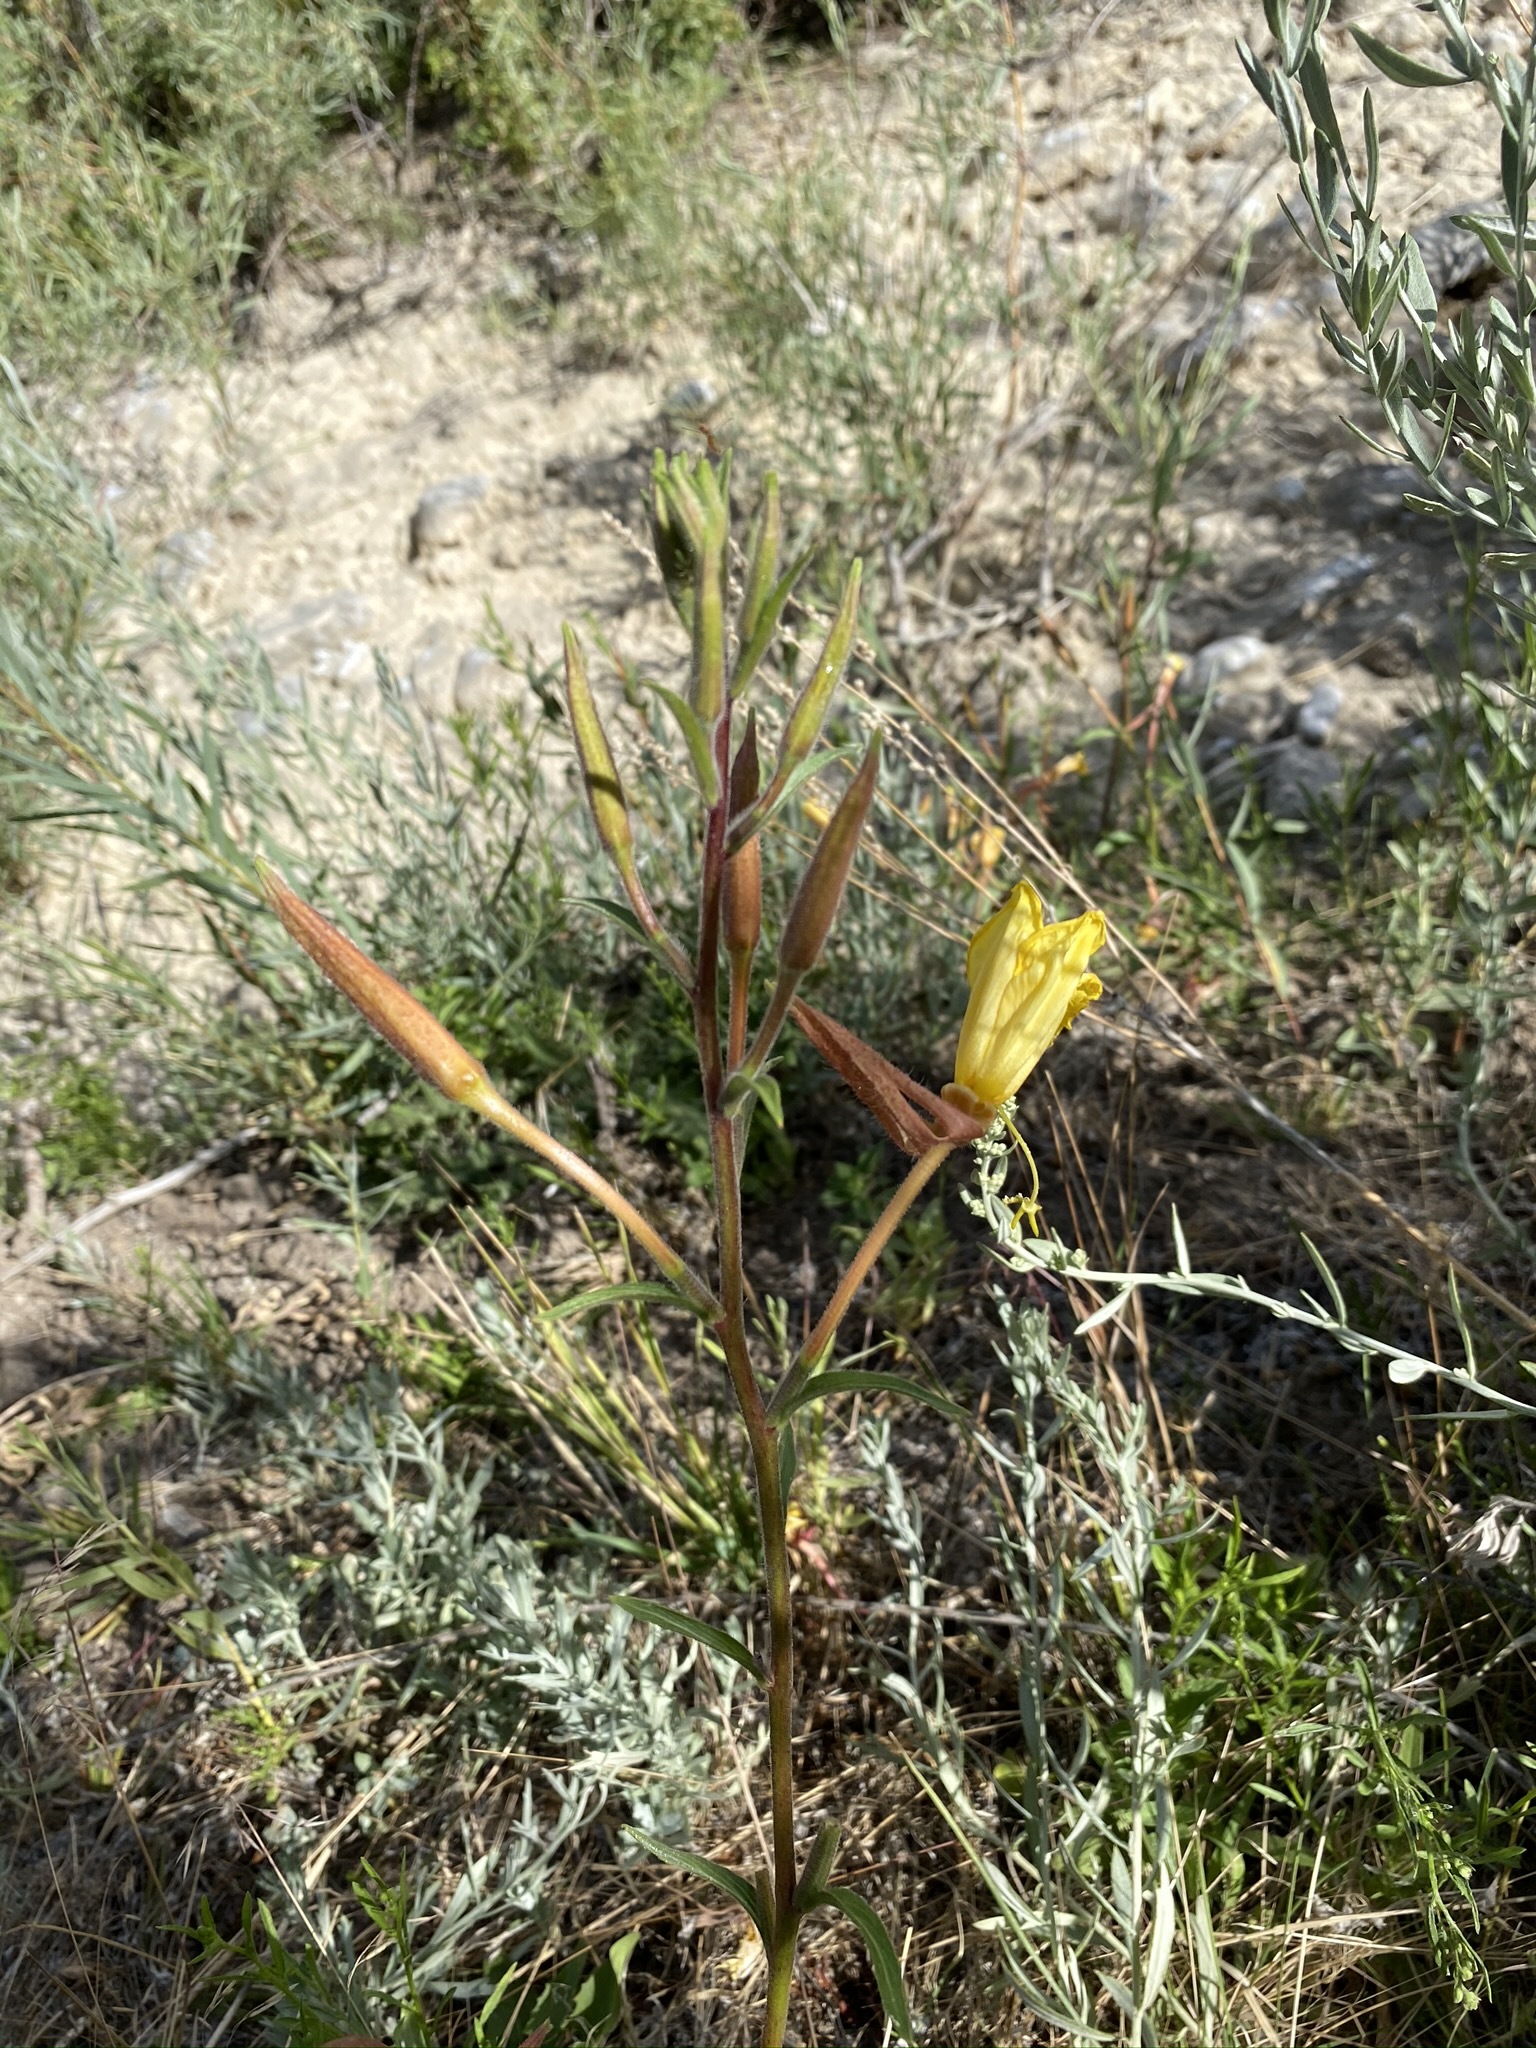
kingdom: Plantae
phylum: Tracheophyta
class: Magnoliopsida
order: Myrtales
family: Onagraceae
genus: Oenothera
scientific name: Oenothera elata
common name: Hooker's evening-primrose
